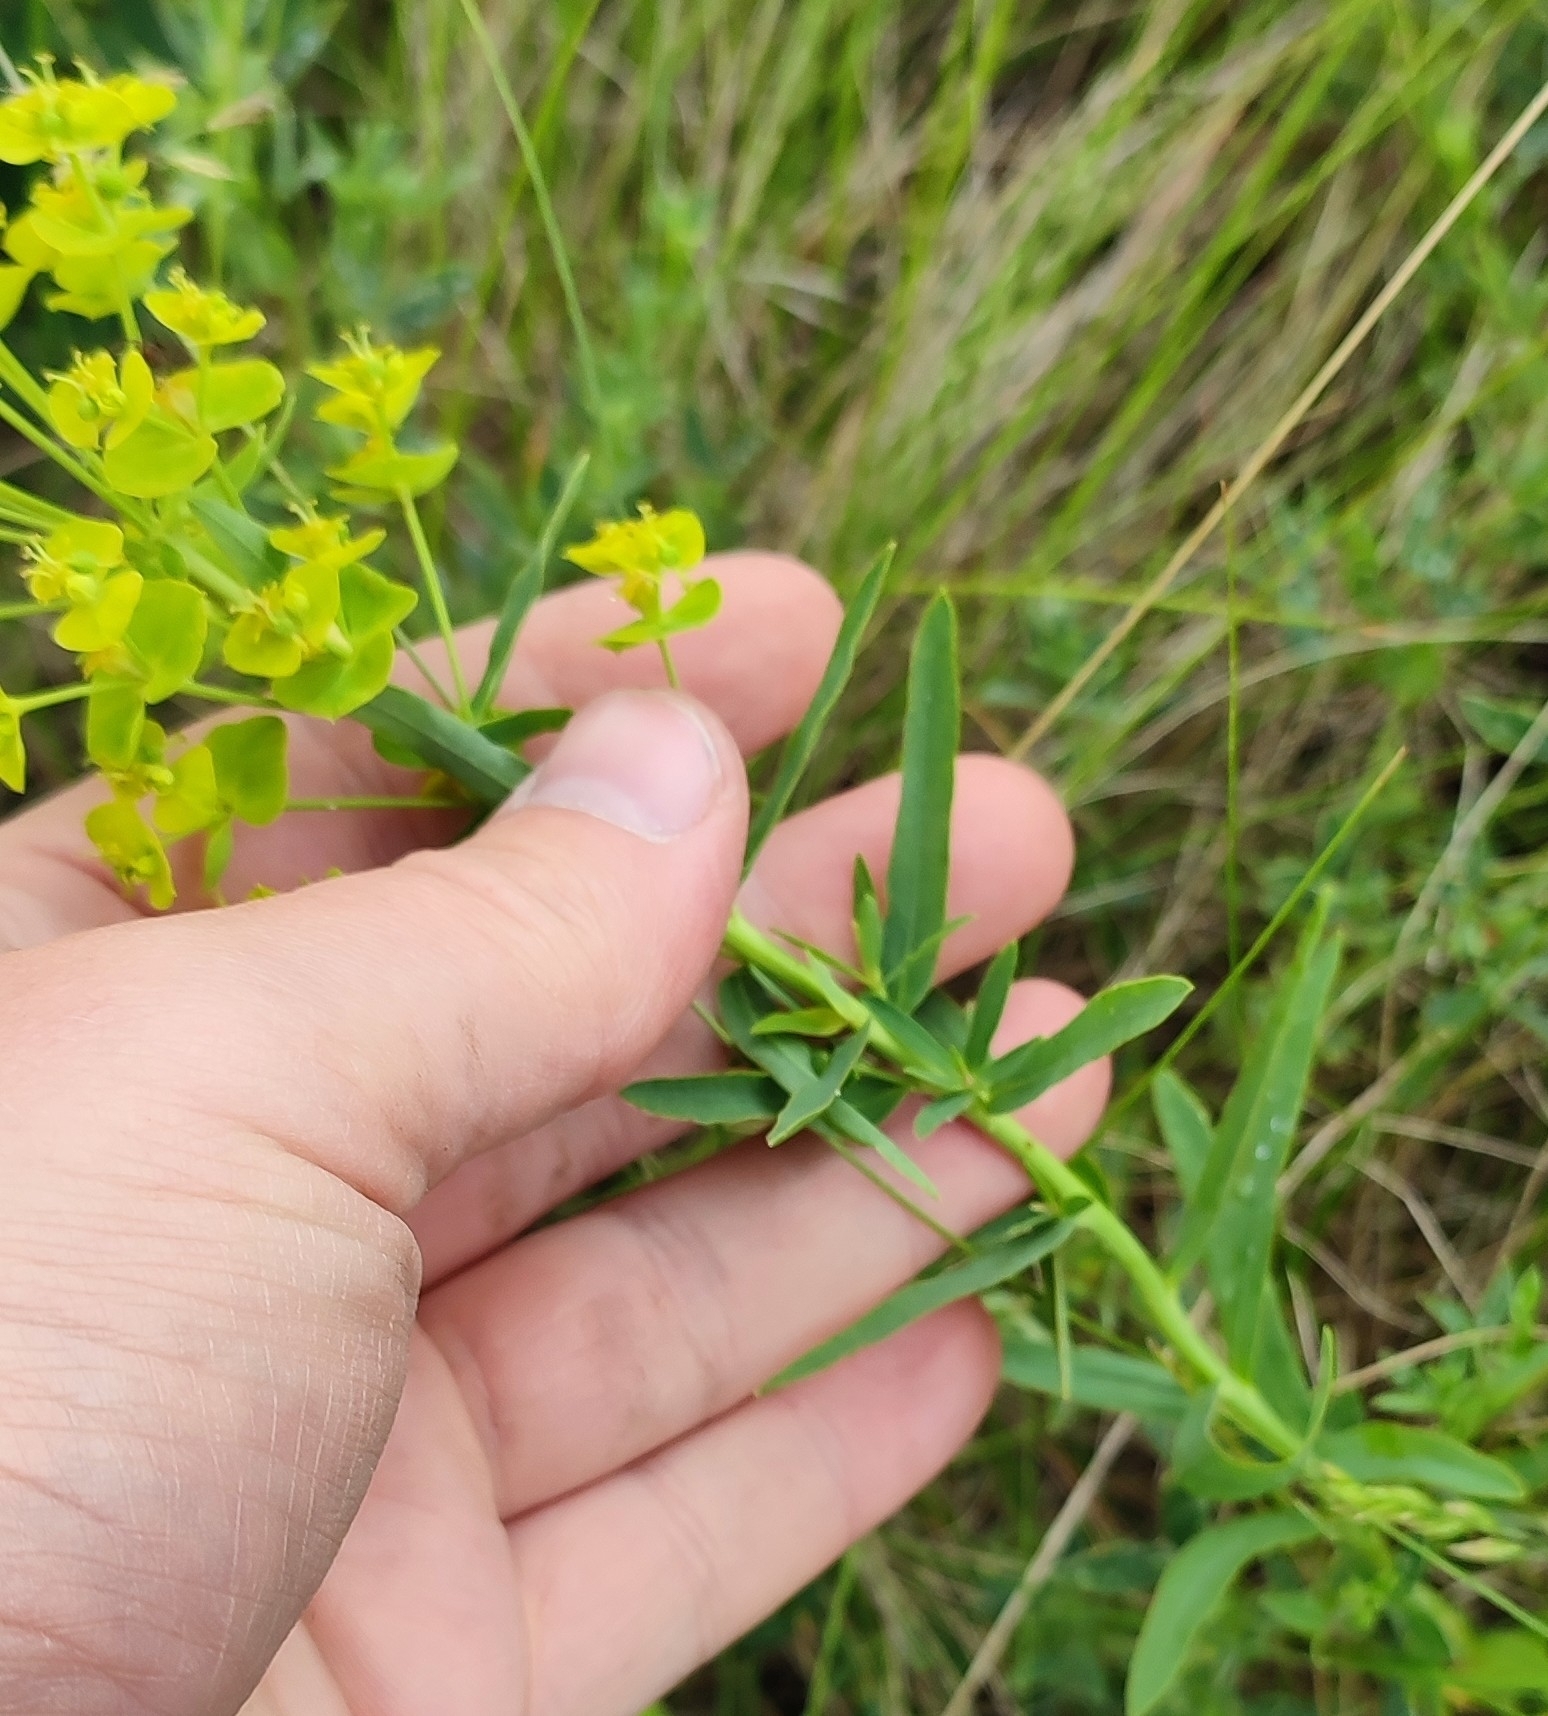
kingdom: Plantae
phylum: Tracheophyta
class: Magnoliopsida
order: Malpighiales
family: Euphorbiaceae
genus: Euphorbia
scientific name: Euphorbia virgata
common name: Leafy spurge
